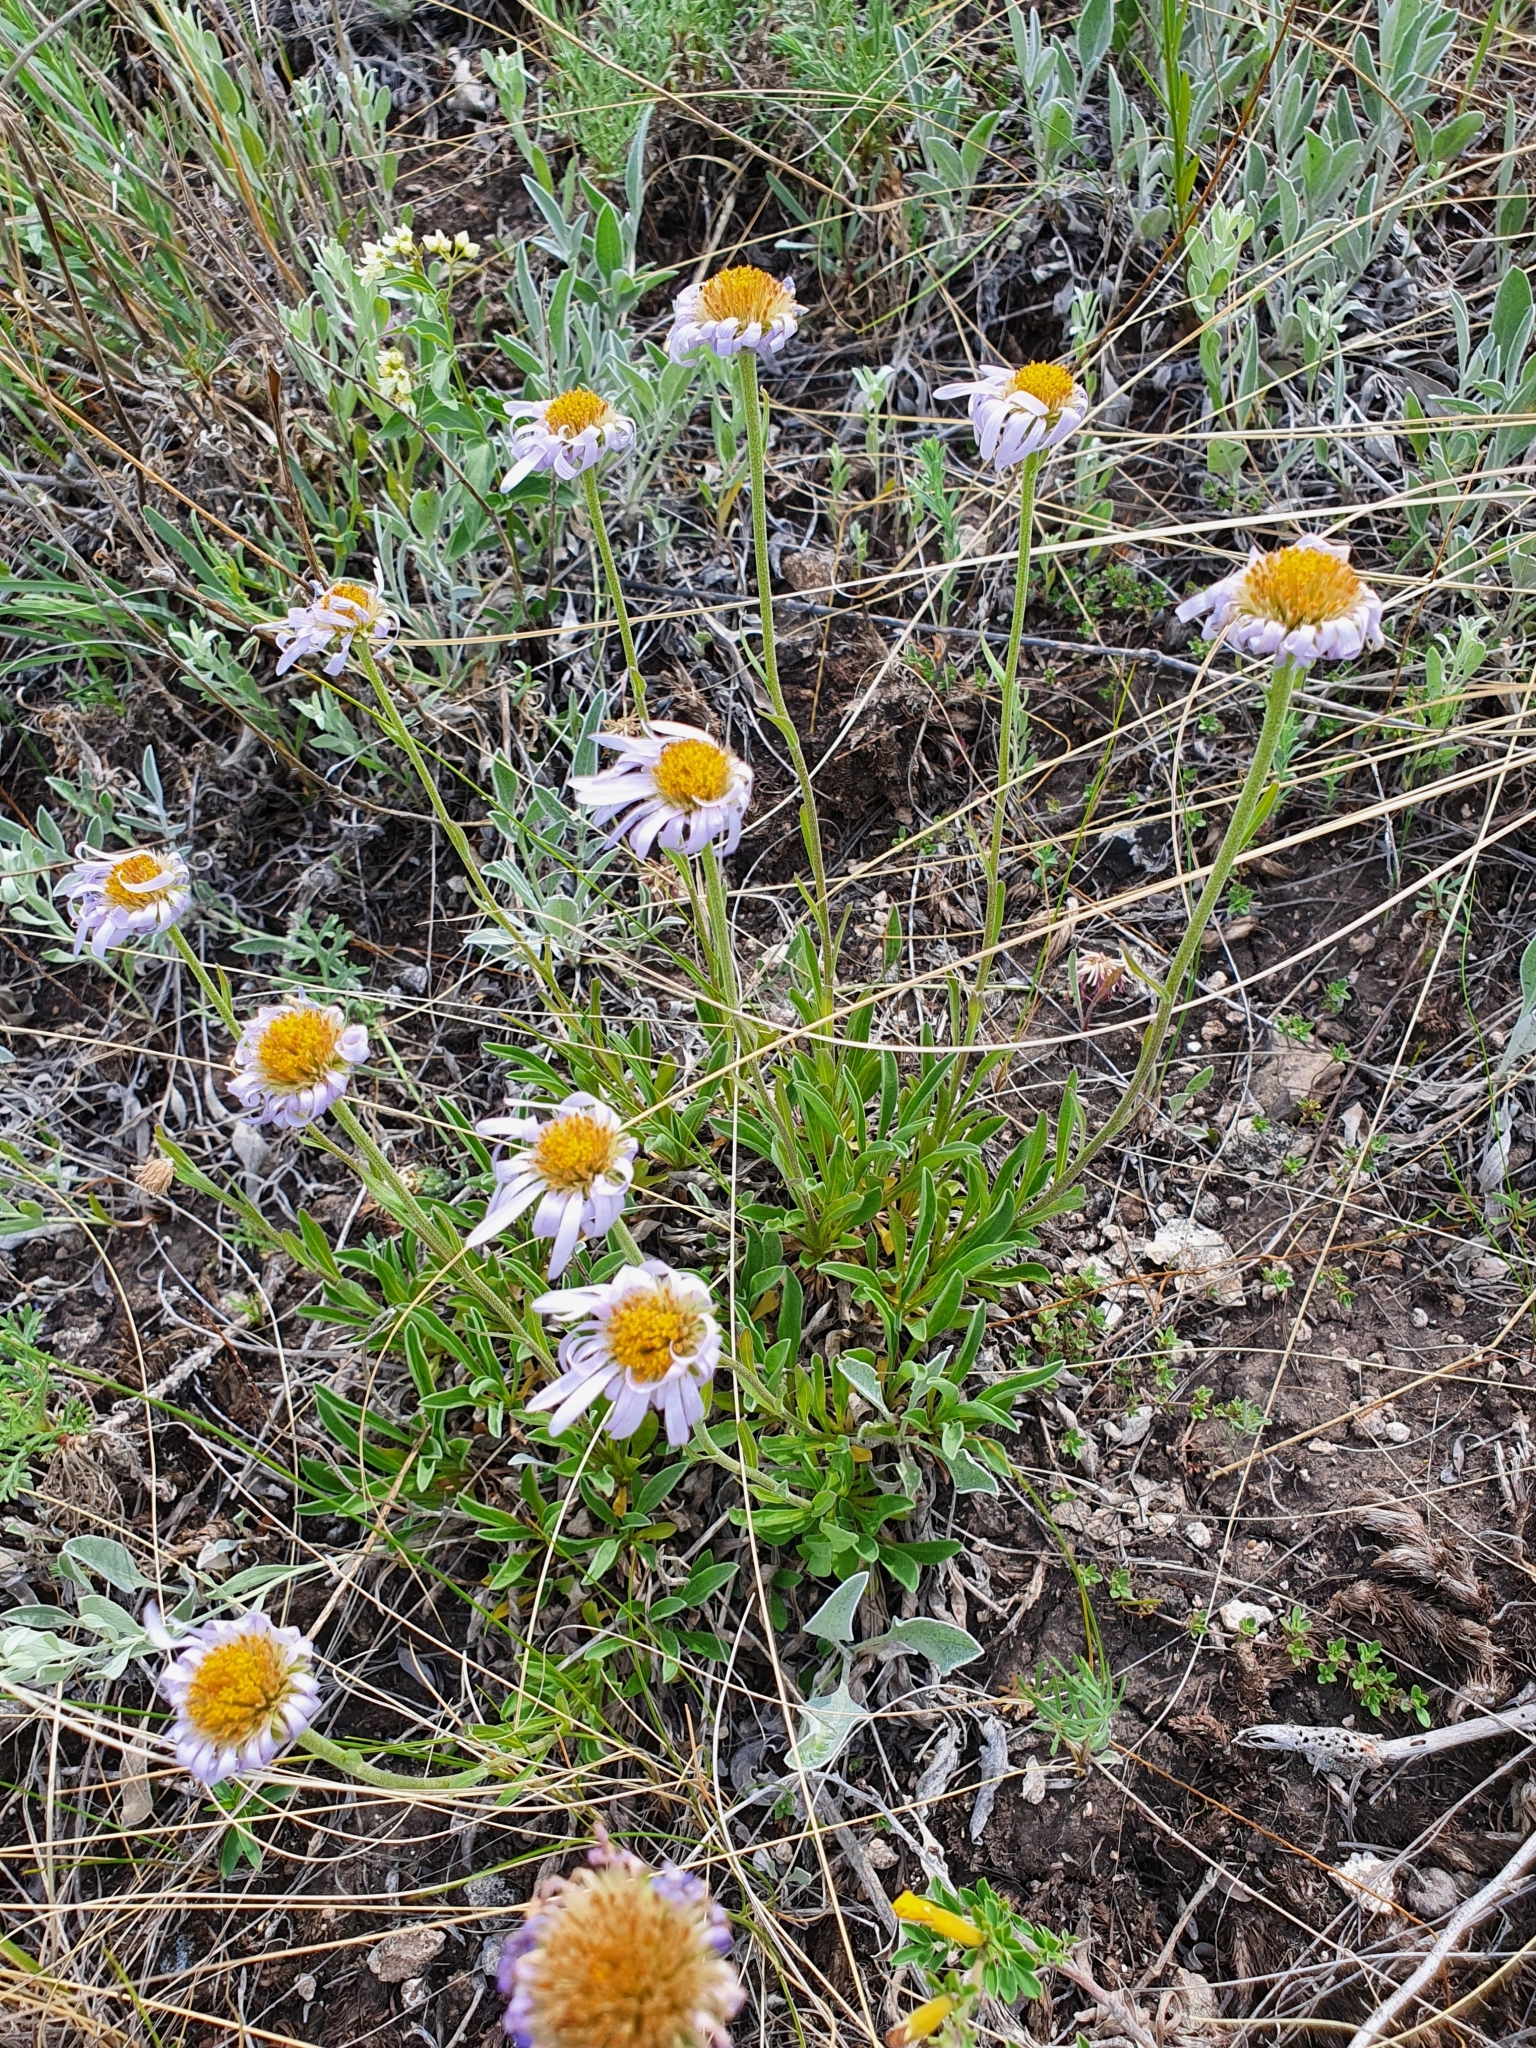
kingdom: Plantae
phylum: Tracheophyta
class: Magnoliopsida
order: Asterales
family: Asteraceae
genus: Aster
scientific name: Aster alpinus
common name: Alpine aster
